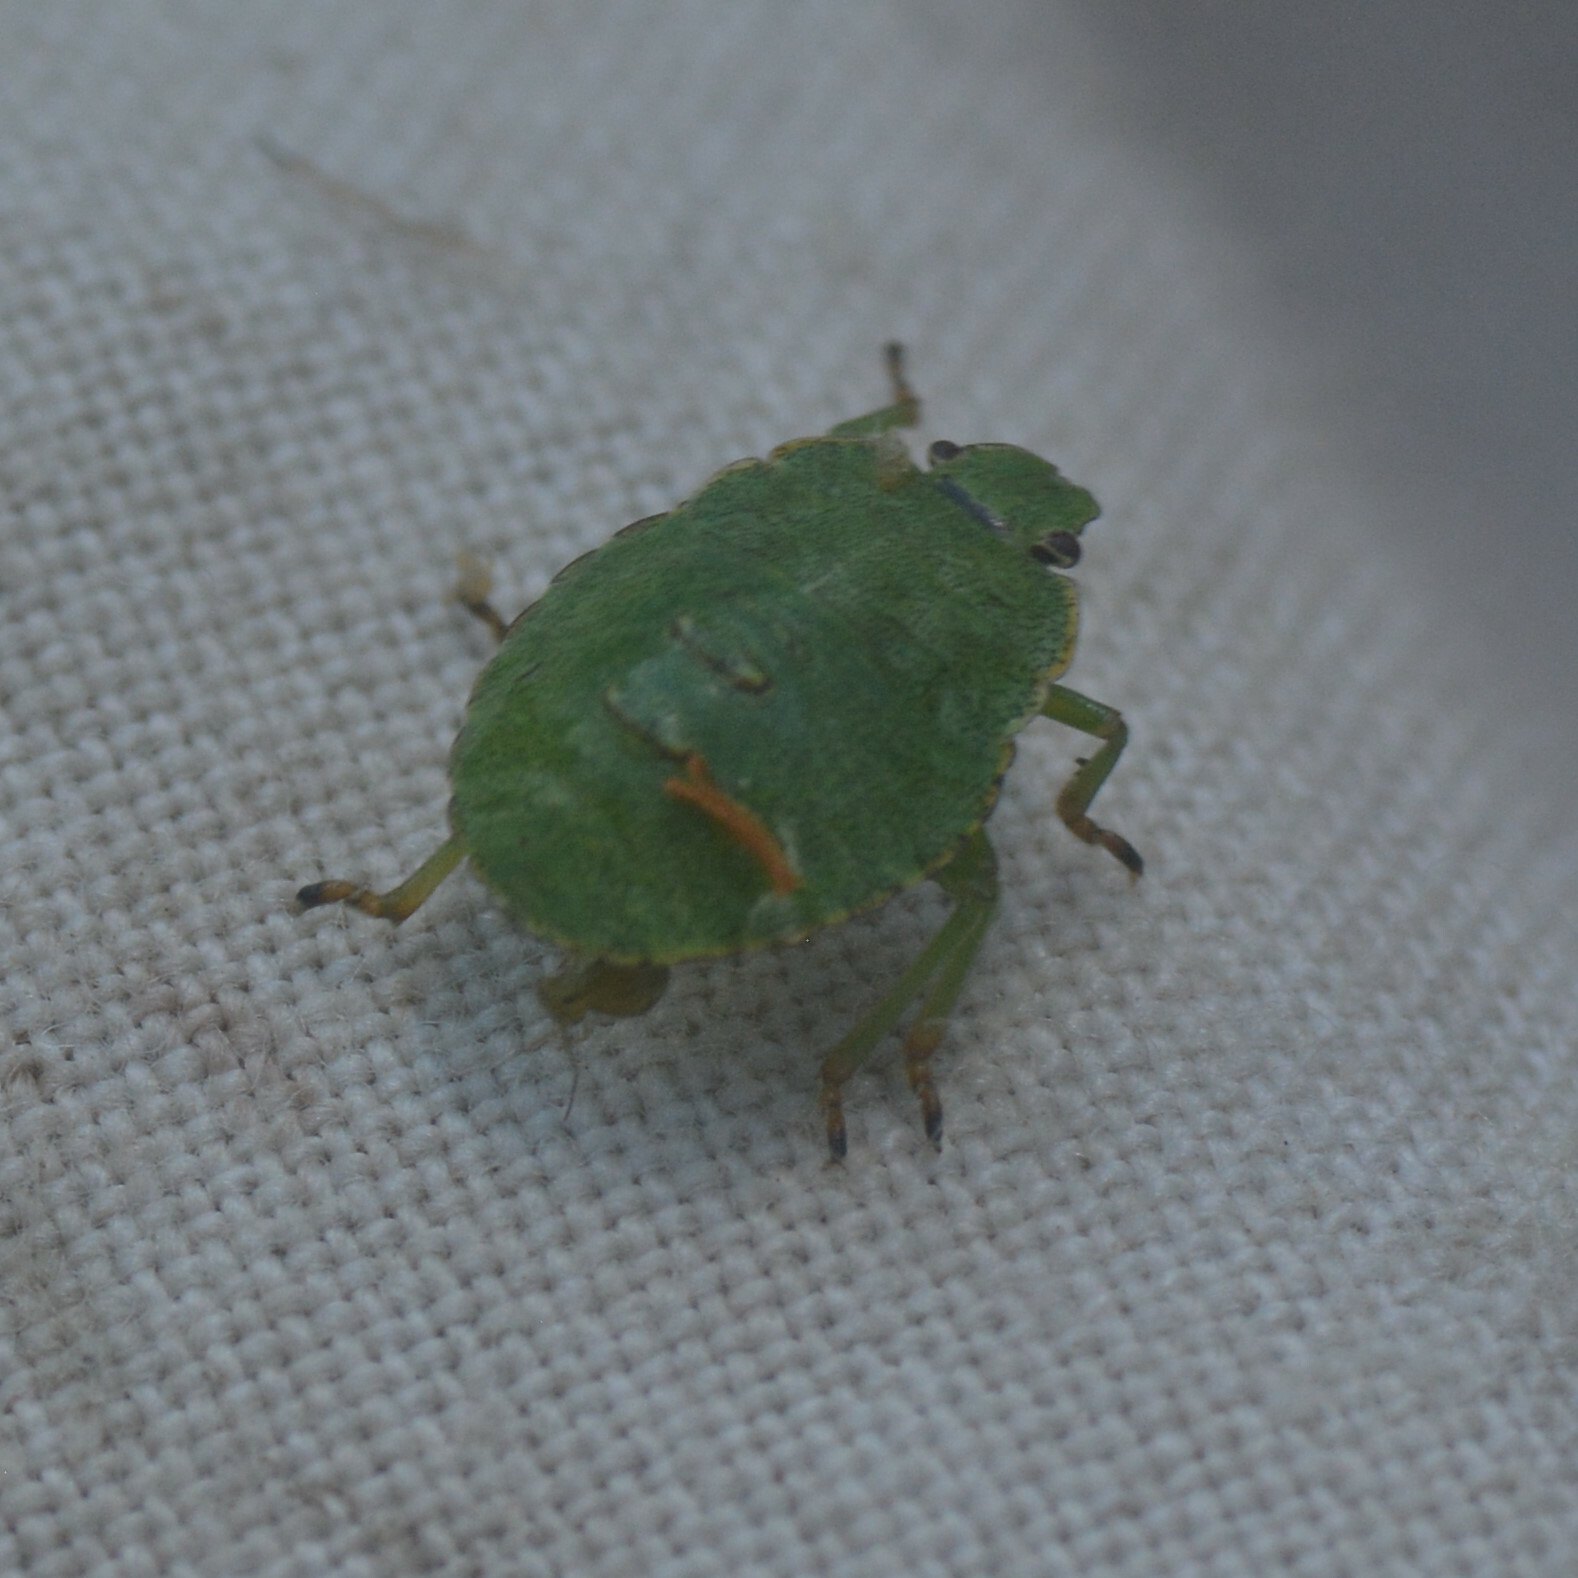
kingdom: Animalia
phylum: Arthropoda
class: Insecta
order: Hemiptera
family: Pentatomidae
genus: Palomena
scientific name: Palomena prasina
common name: Green shieldbug
